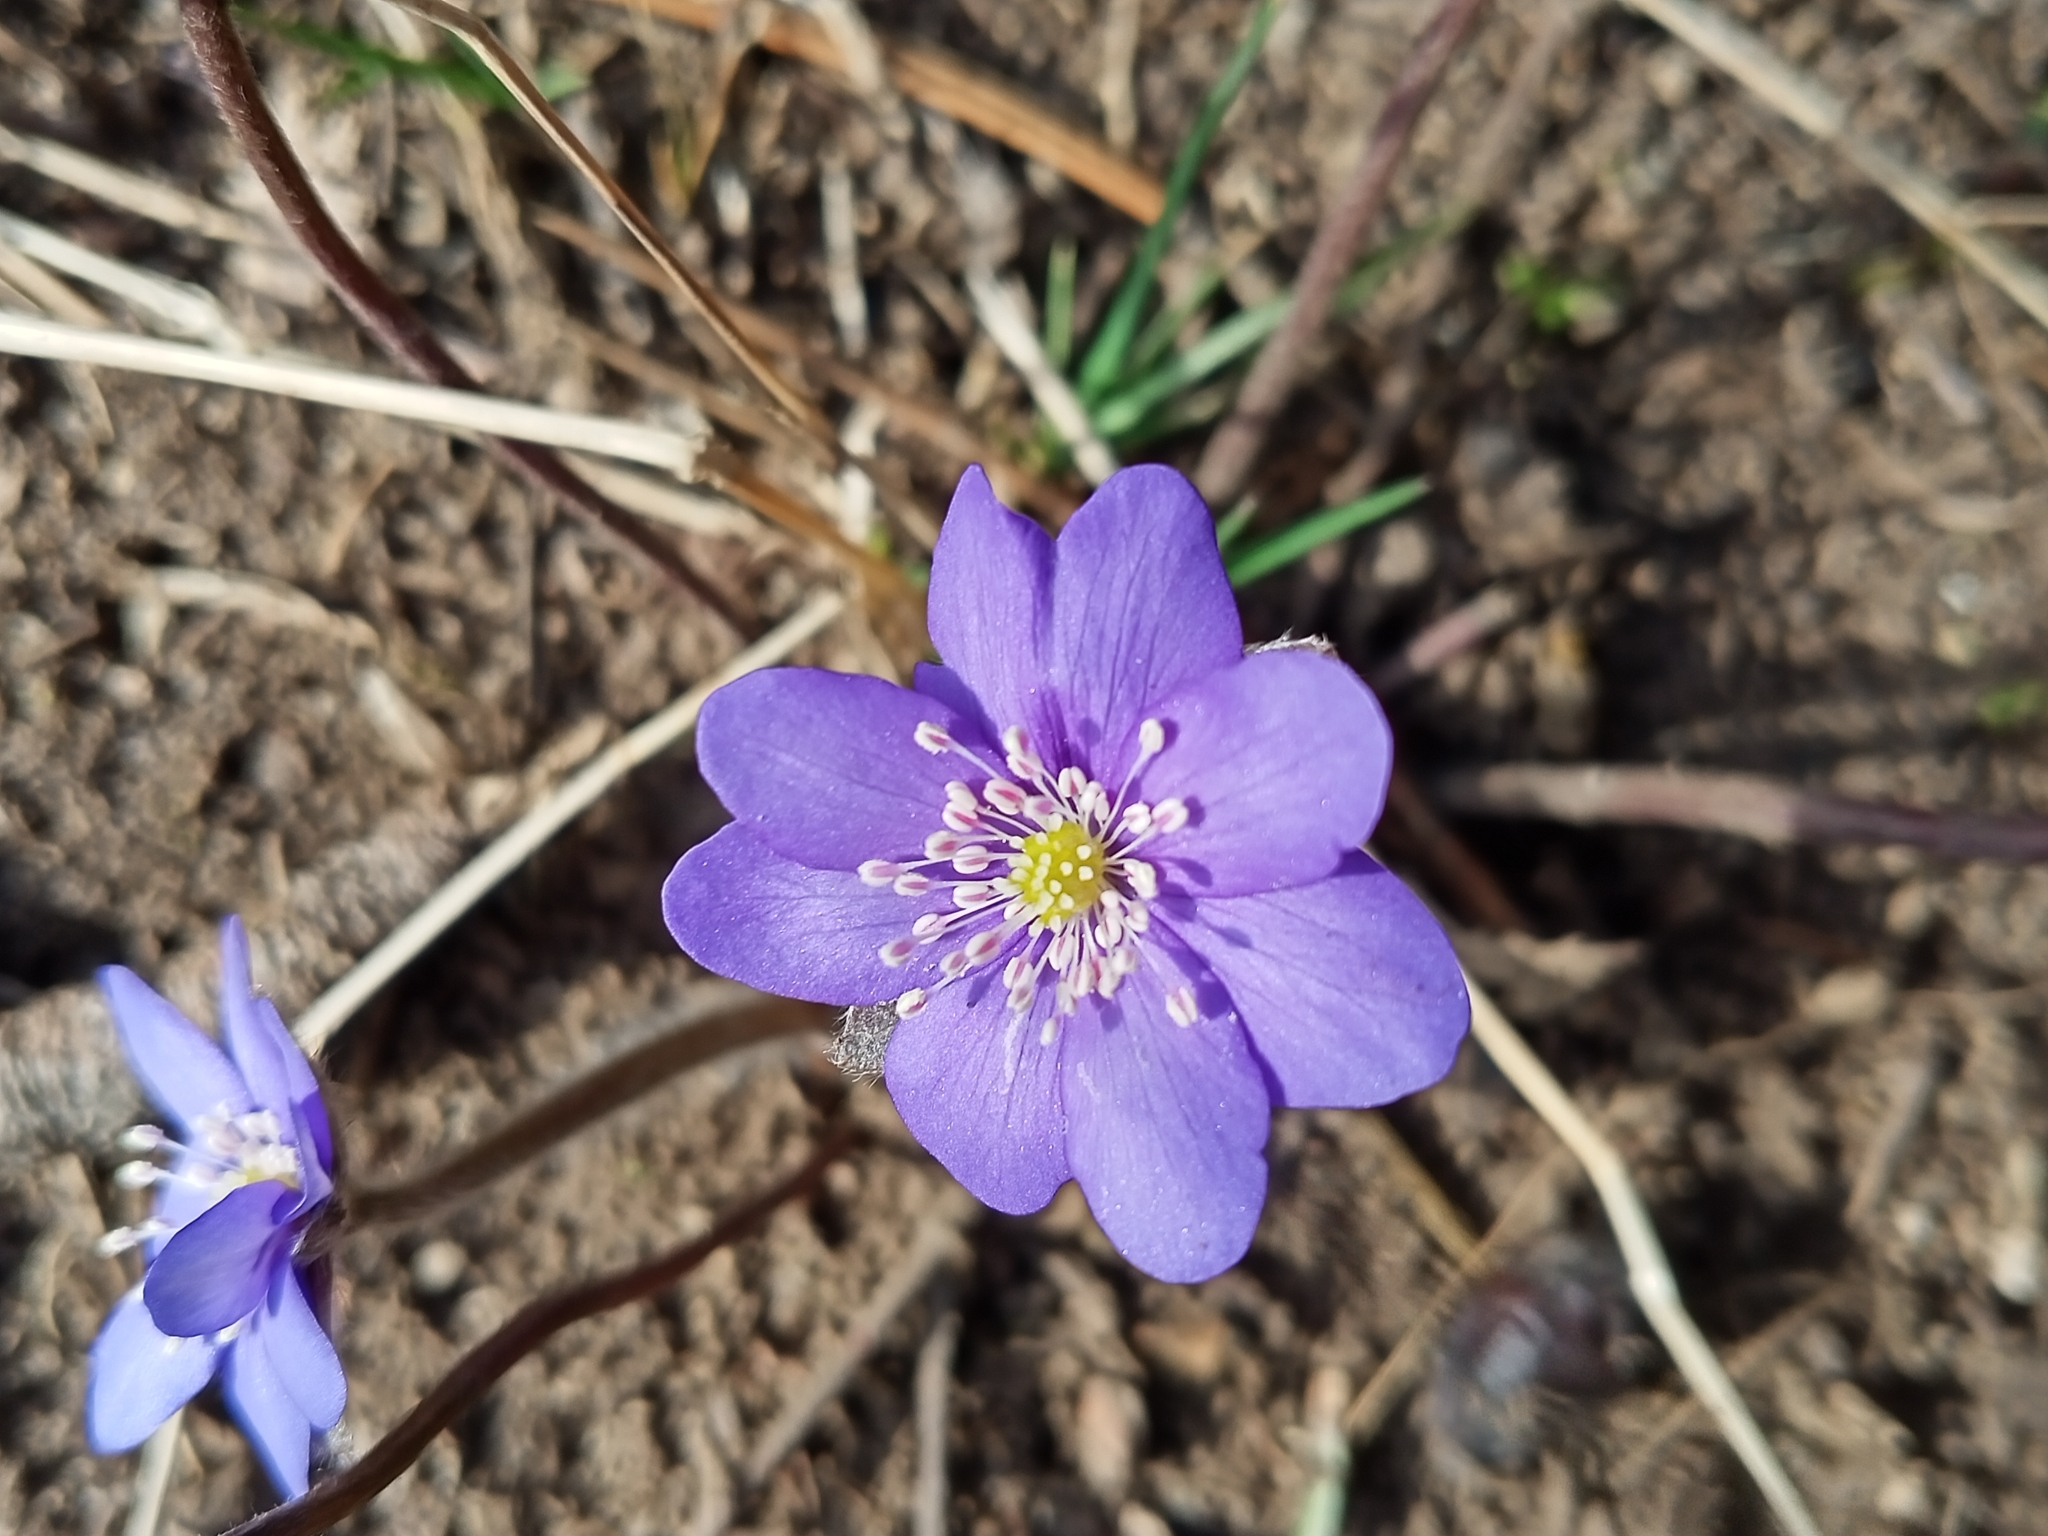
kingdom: Plantae
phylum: Tracheophyta
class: Magnoliopsida
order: Ranunculales
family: Ranunculaceae
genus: Hepatica
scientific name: Hepatica nobilis
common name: Liverleaf
